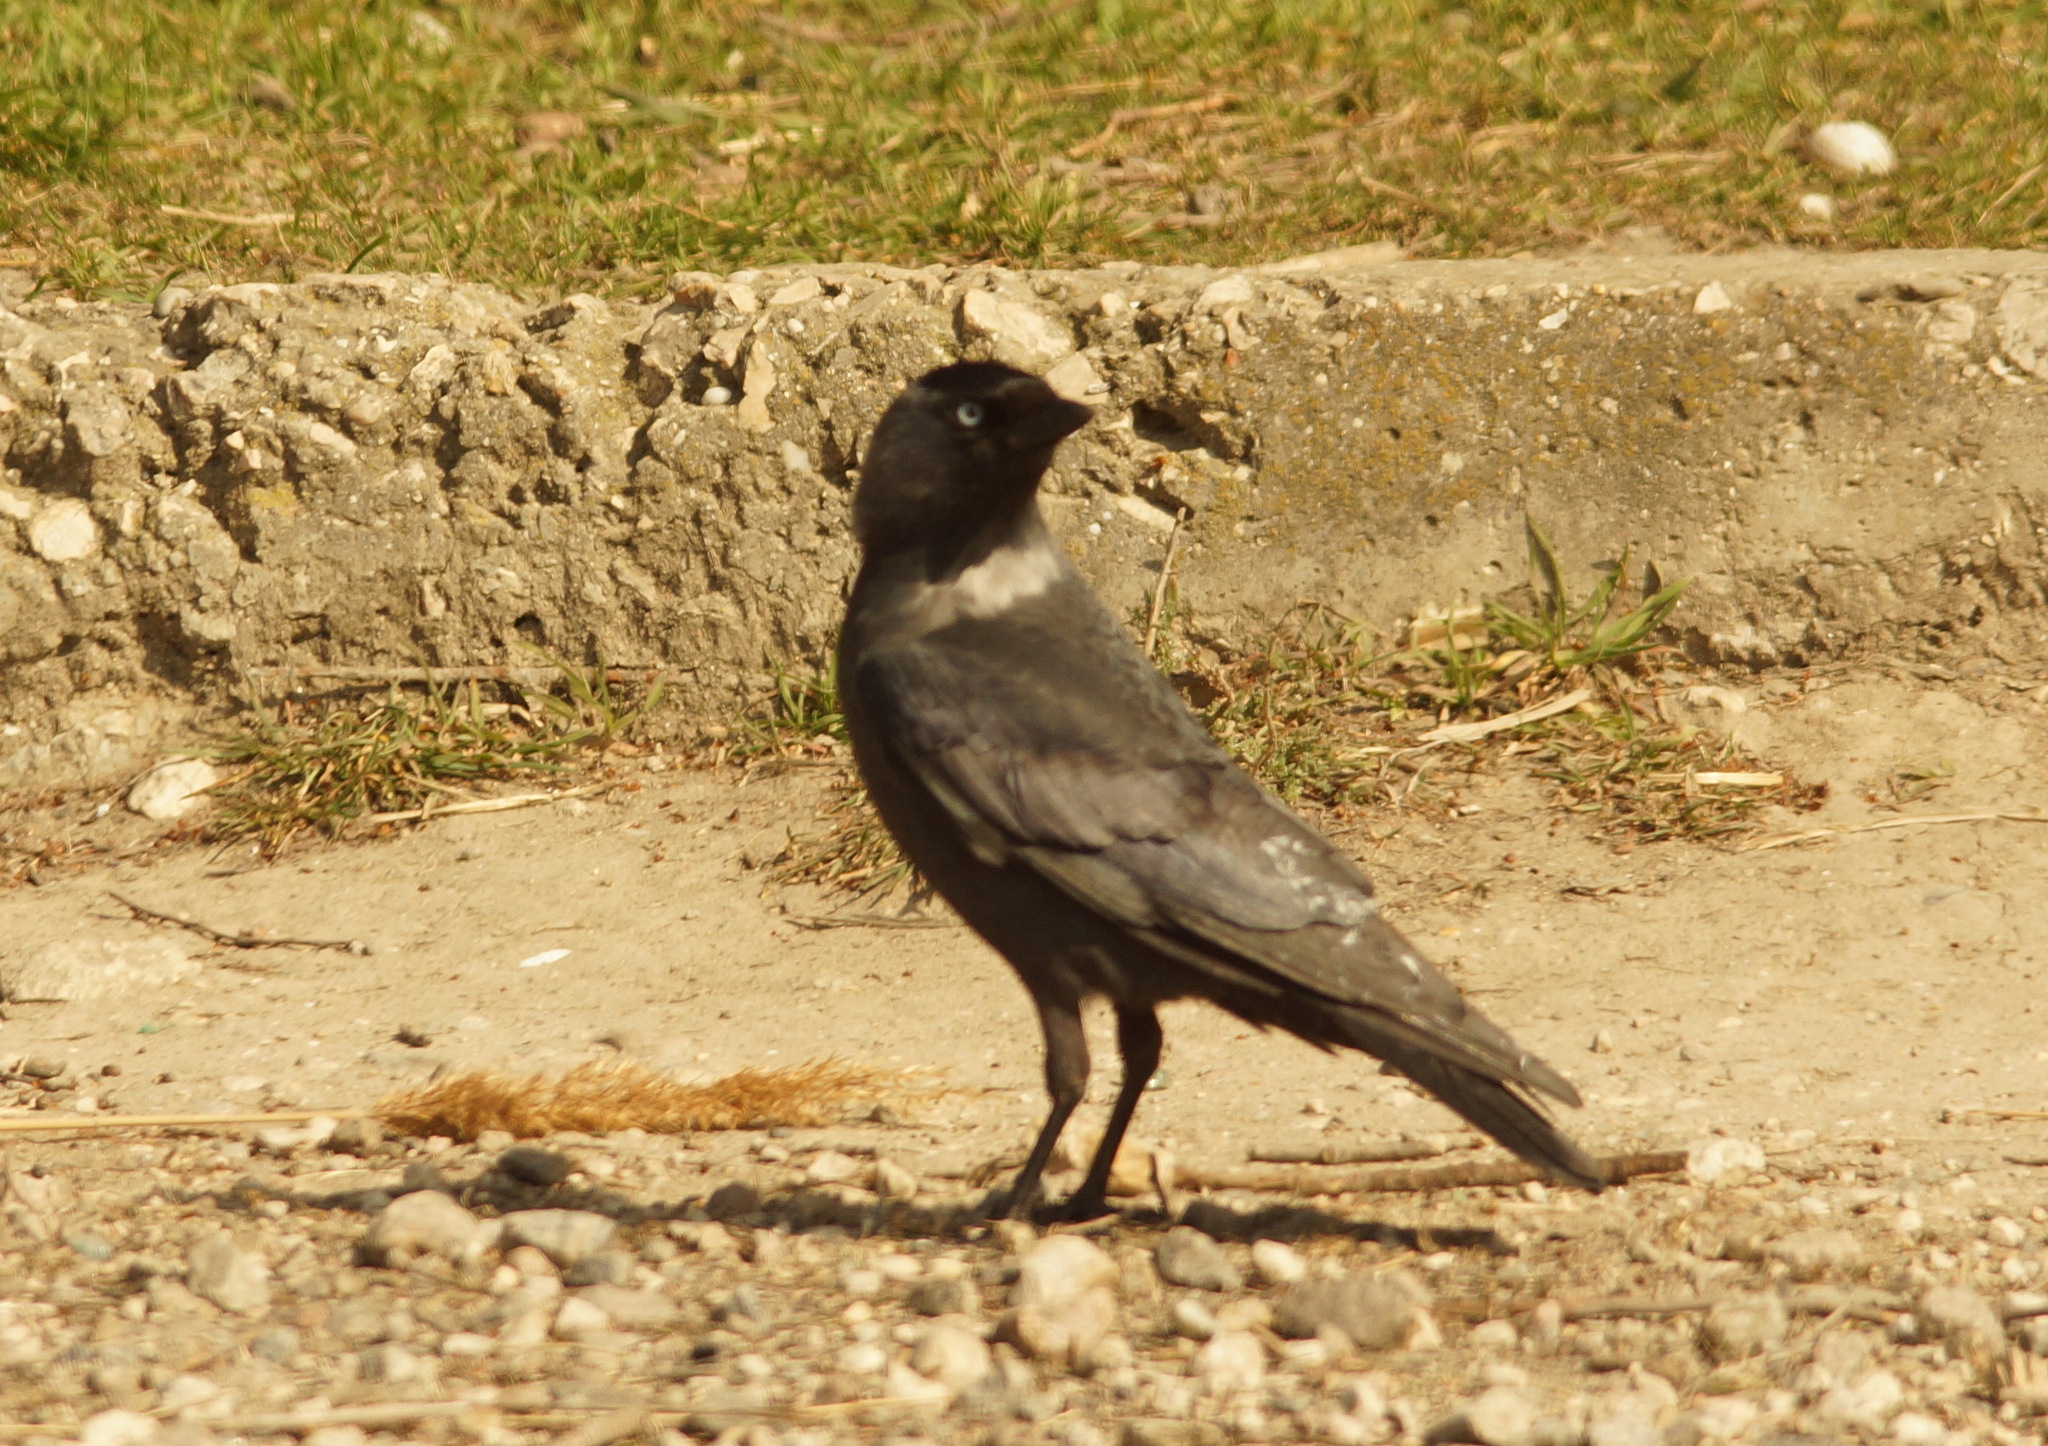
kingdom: Animalia
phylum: Chordata
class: Aves
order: Passeriformes
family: Corvidae
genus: Coloeus
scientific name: Coloeus monedula
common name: Western jackdaw
